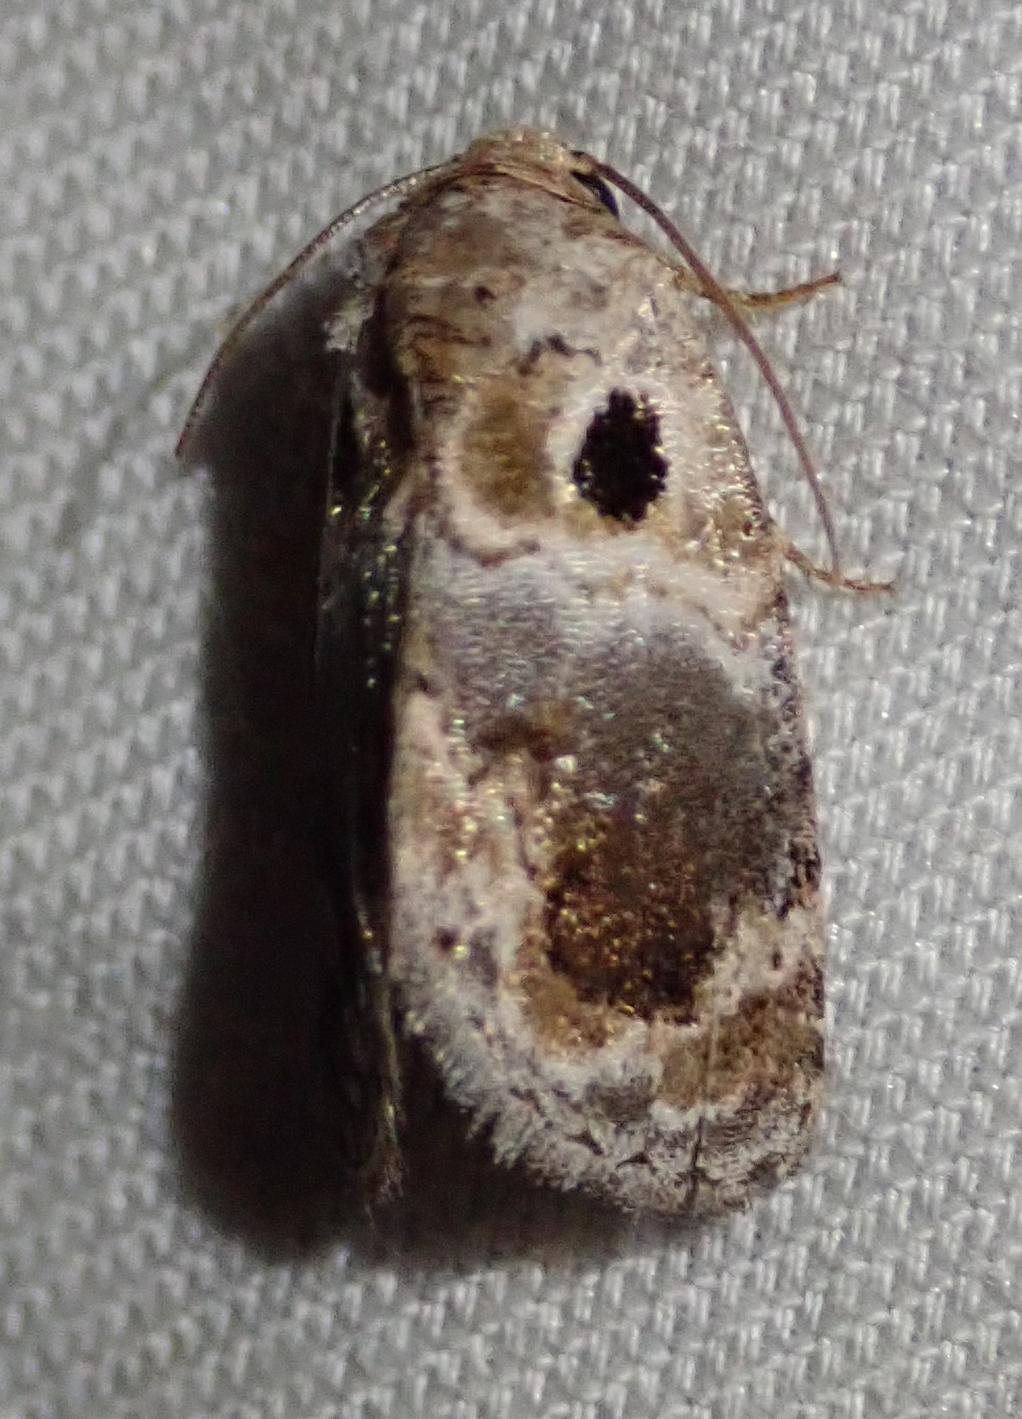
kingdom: Animalia
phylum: Arthropoda
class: Insecta
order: Lepidoptera
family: Noctuidae
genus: Protarache
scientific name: Protarache melaphora
